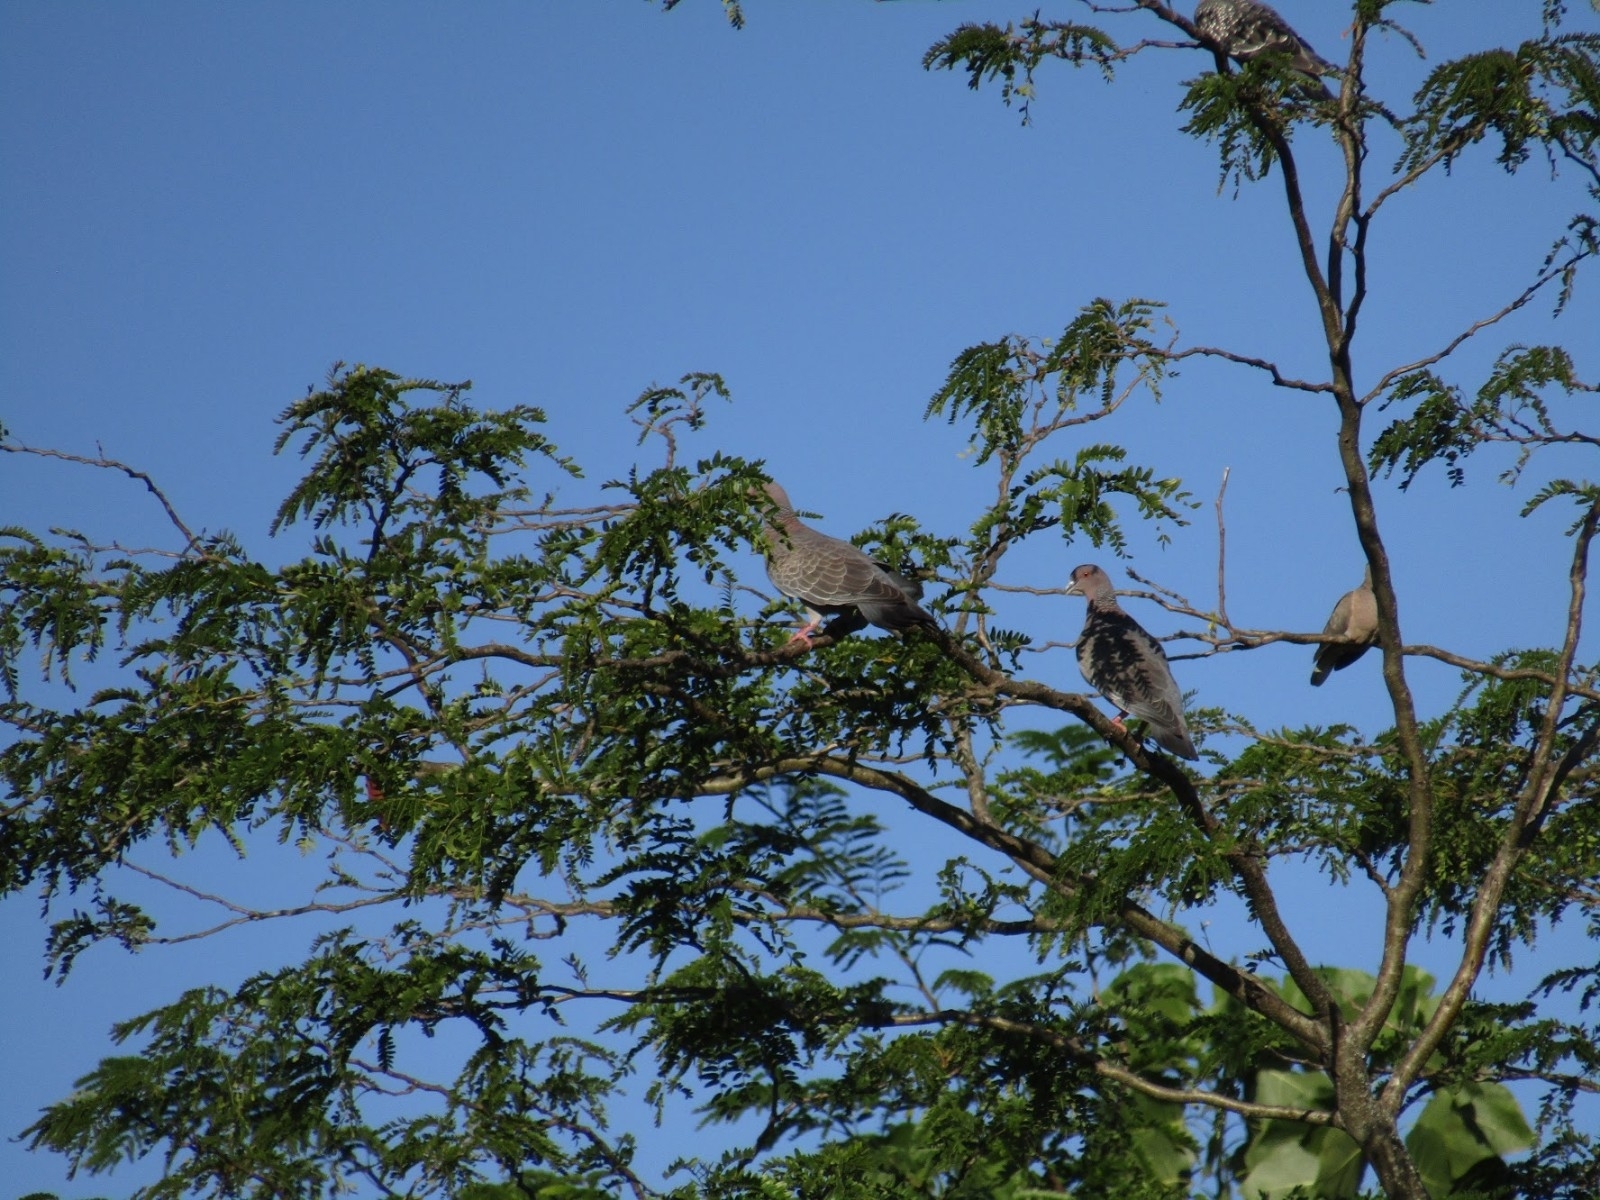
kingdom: Animalia
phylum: Chordata
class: Aves
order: Columbiformes
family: Columbidae
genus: Patagioenas
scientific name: Patagioenas picazuro
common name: Picazuro pigeon
